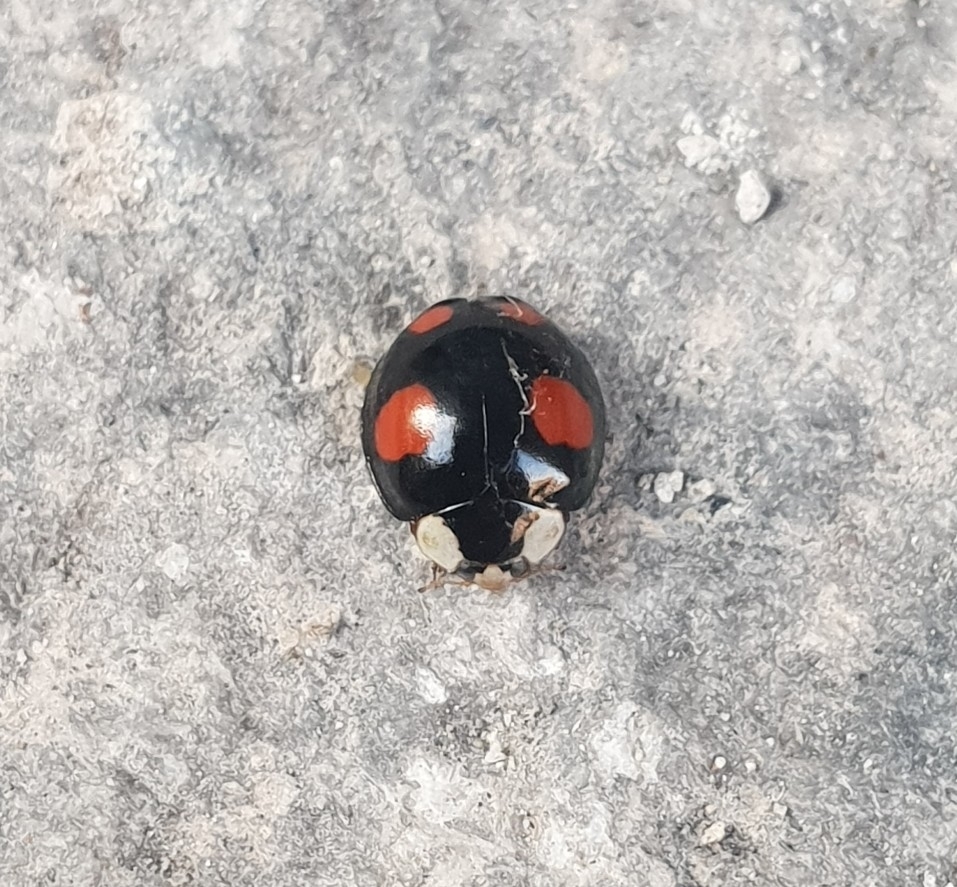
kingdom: Animalia
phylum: Arthropoda
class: Insecta
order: Coleoptera
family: Coccinellidae
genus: Harmonia
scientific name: Harmonia axyridis
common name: Harlequin ladybird
